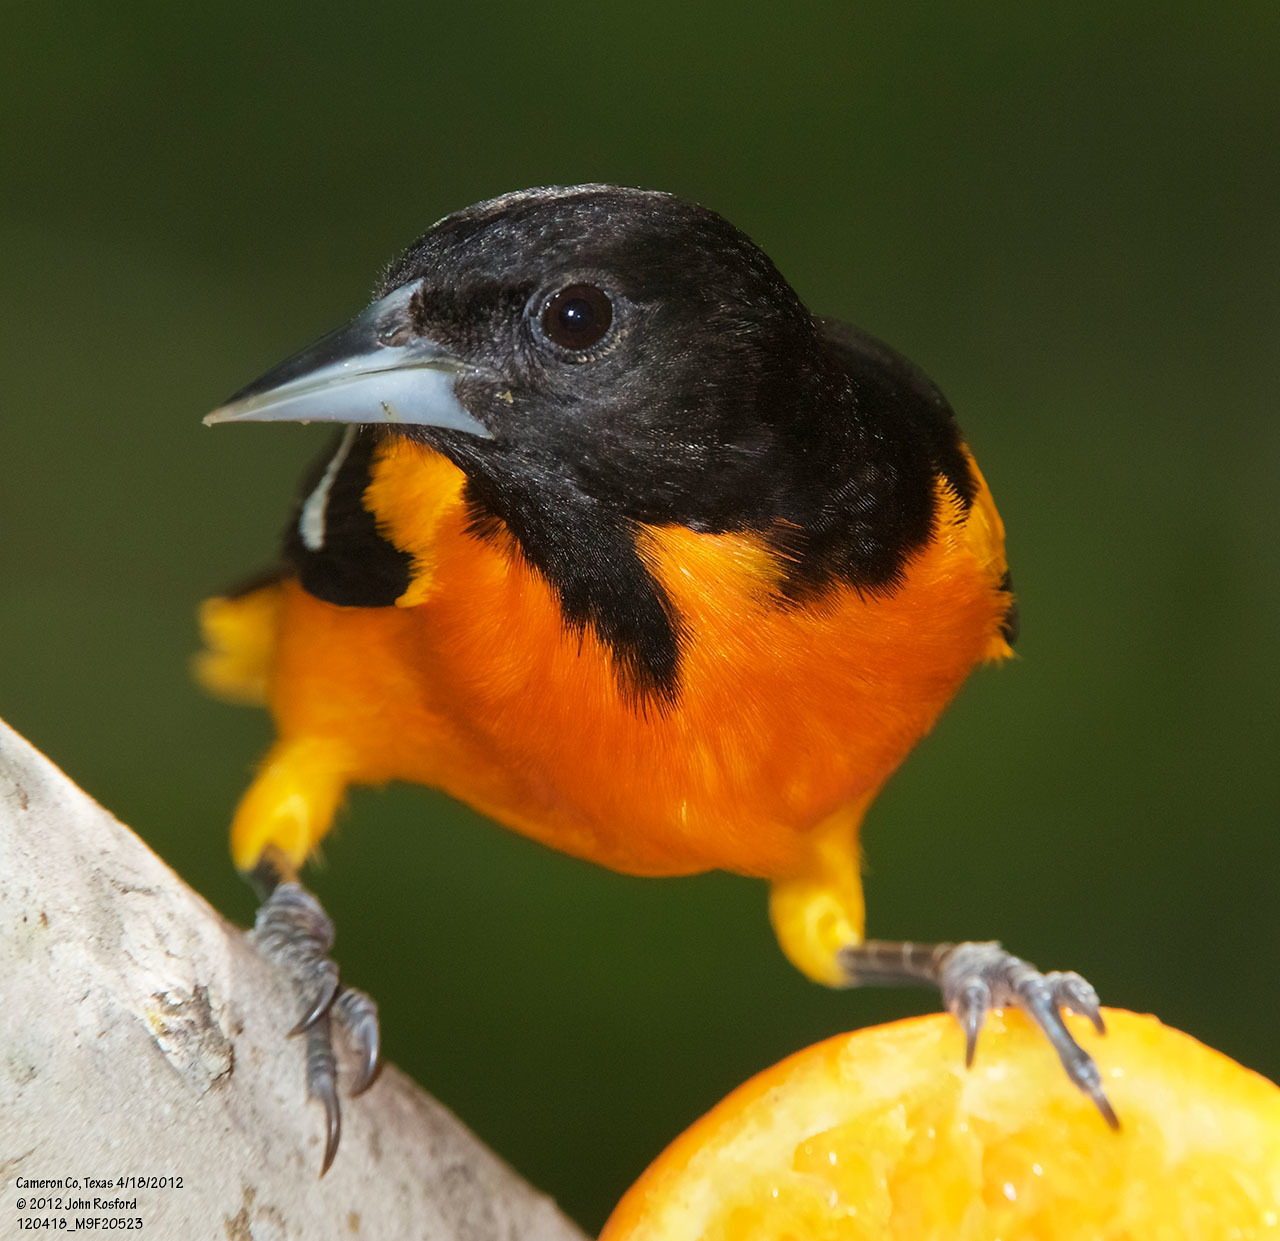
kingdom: Animalia
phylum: Chordata
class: Aves
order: Passeriformes
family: Icteridae
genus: Icterus
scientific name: Icterus galbula
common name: Baltimore oriole
